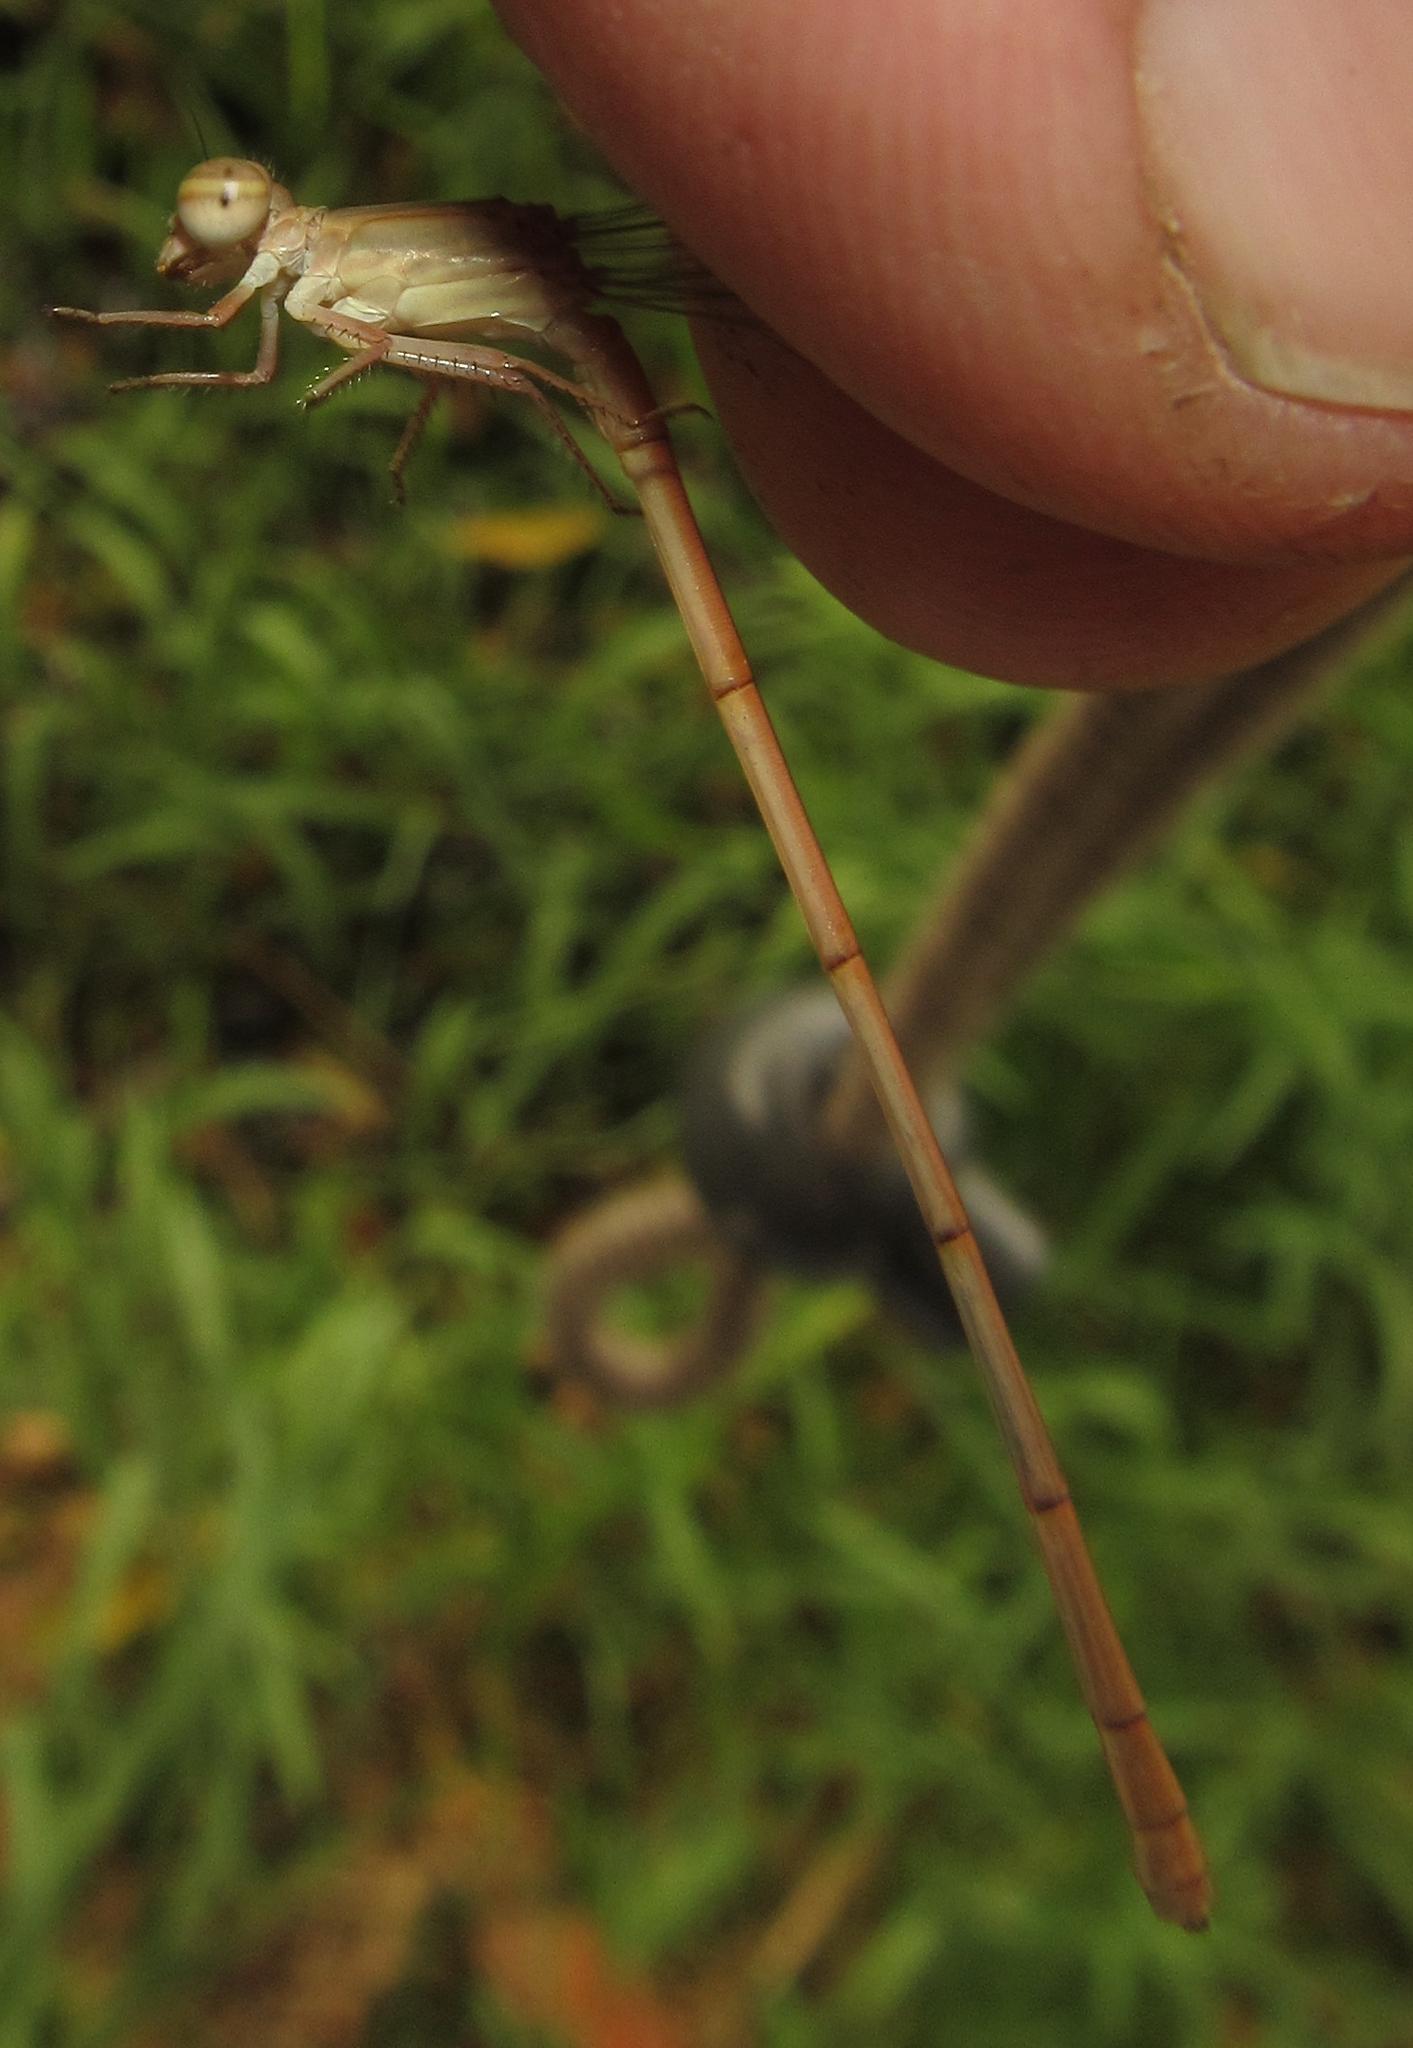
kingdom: Animalia
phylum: Arthropoda
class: Insecta
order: Odonata
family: Coenagrionidae
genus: Ceriagrion
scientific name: Ceriagrion suave
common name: Plain waxtail
